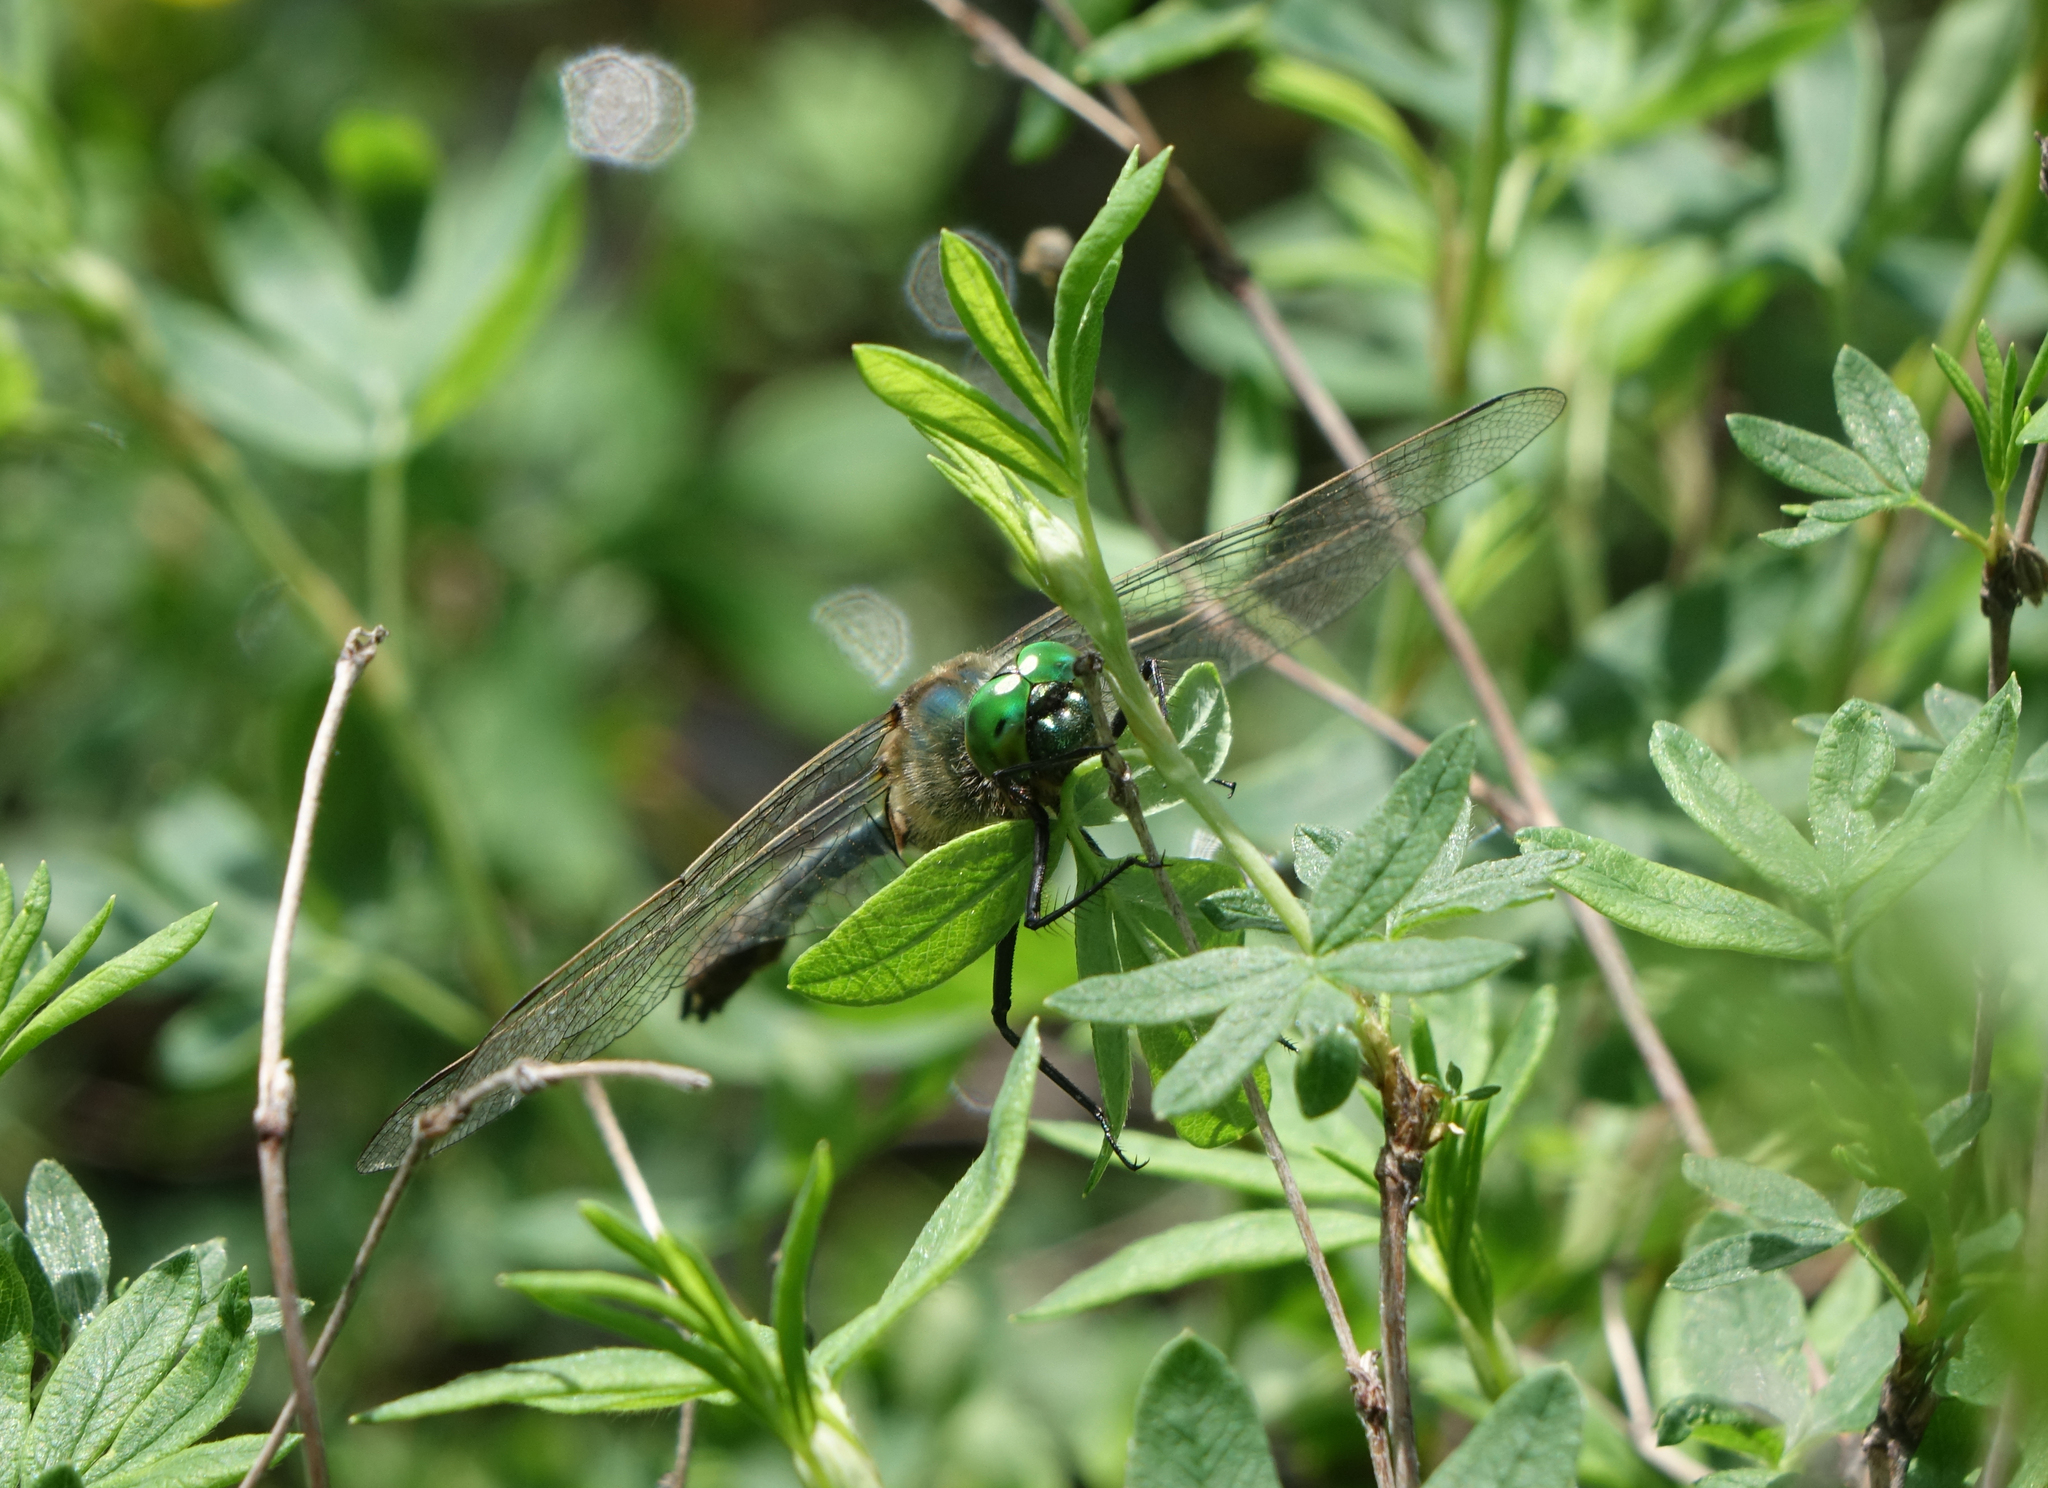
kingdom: Plantae
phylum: Tracheophyta
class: Magnoliopsida
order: Rosales
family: Rosaceae
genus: Dasiphora
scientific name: Dasiphora fruticosa
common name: Shrubby cinquefoil
